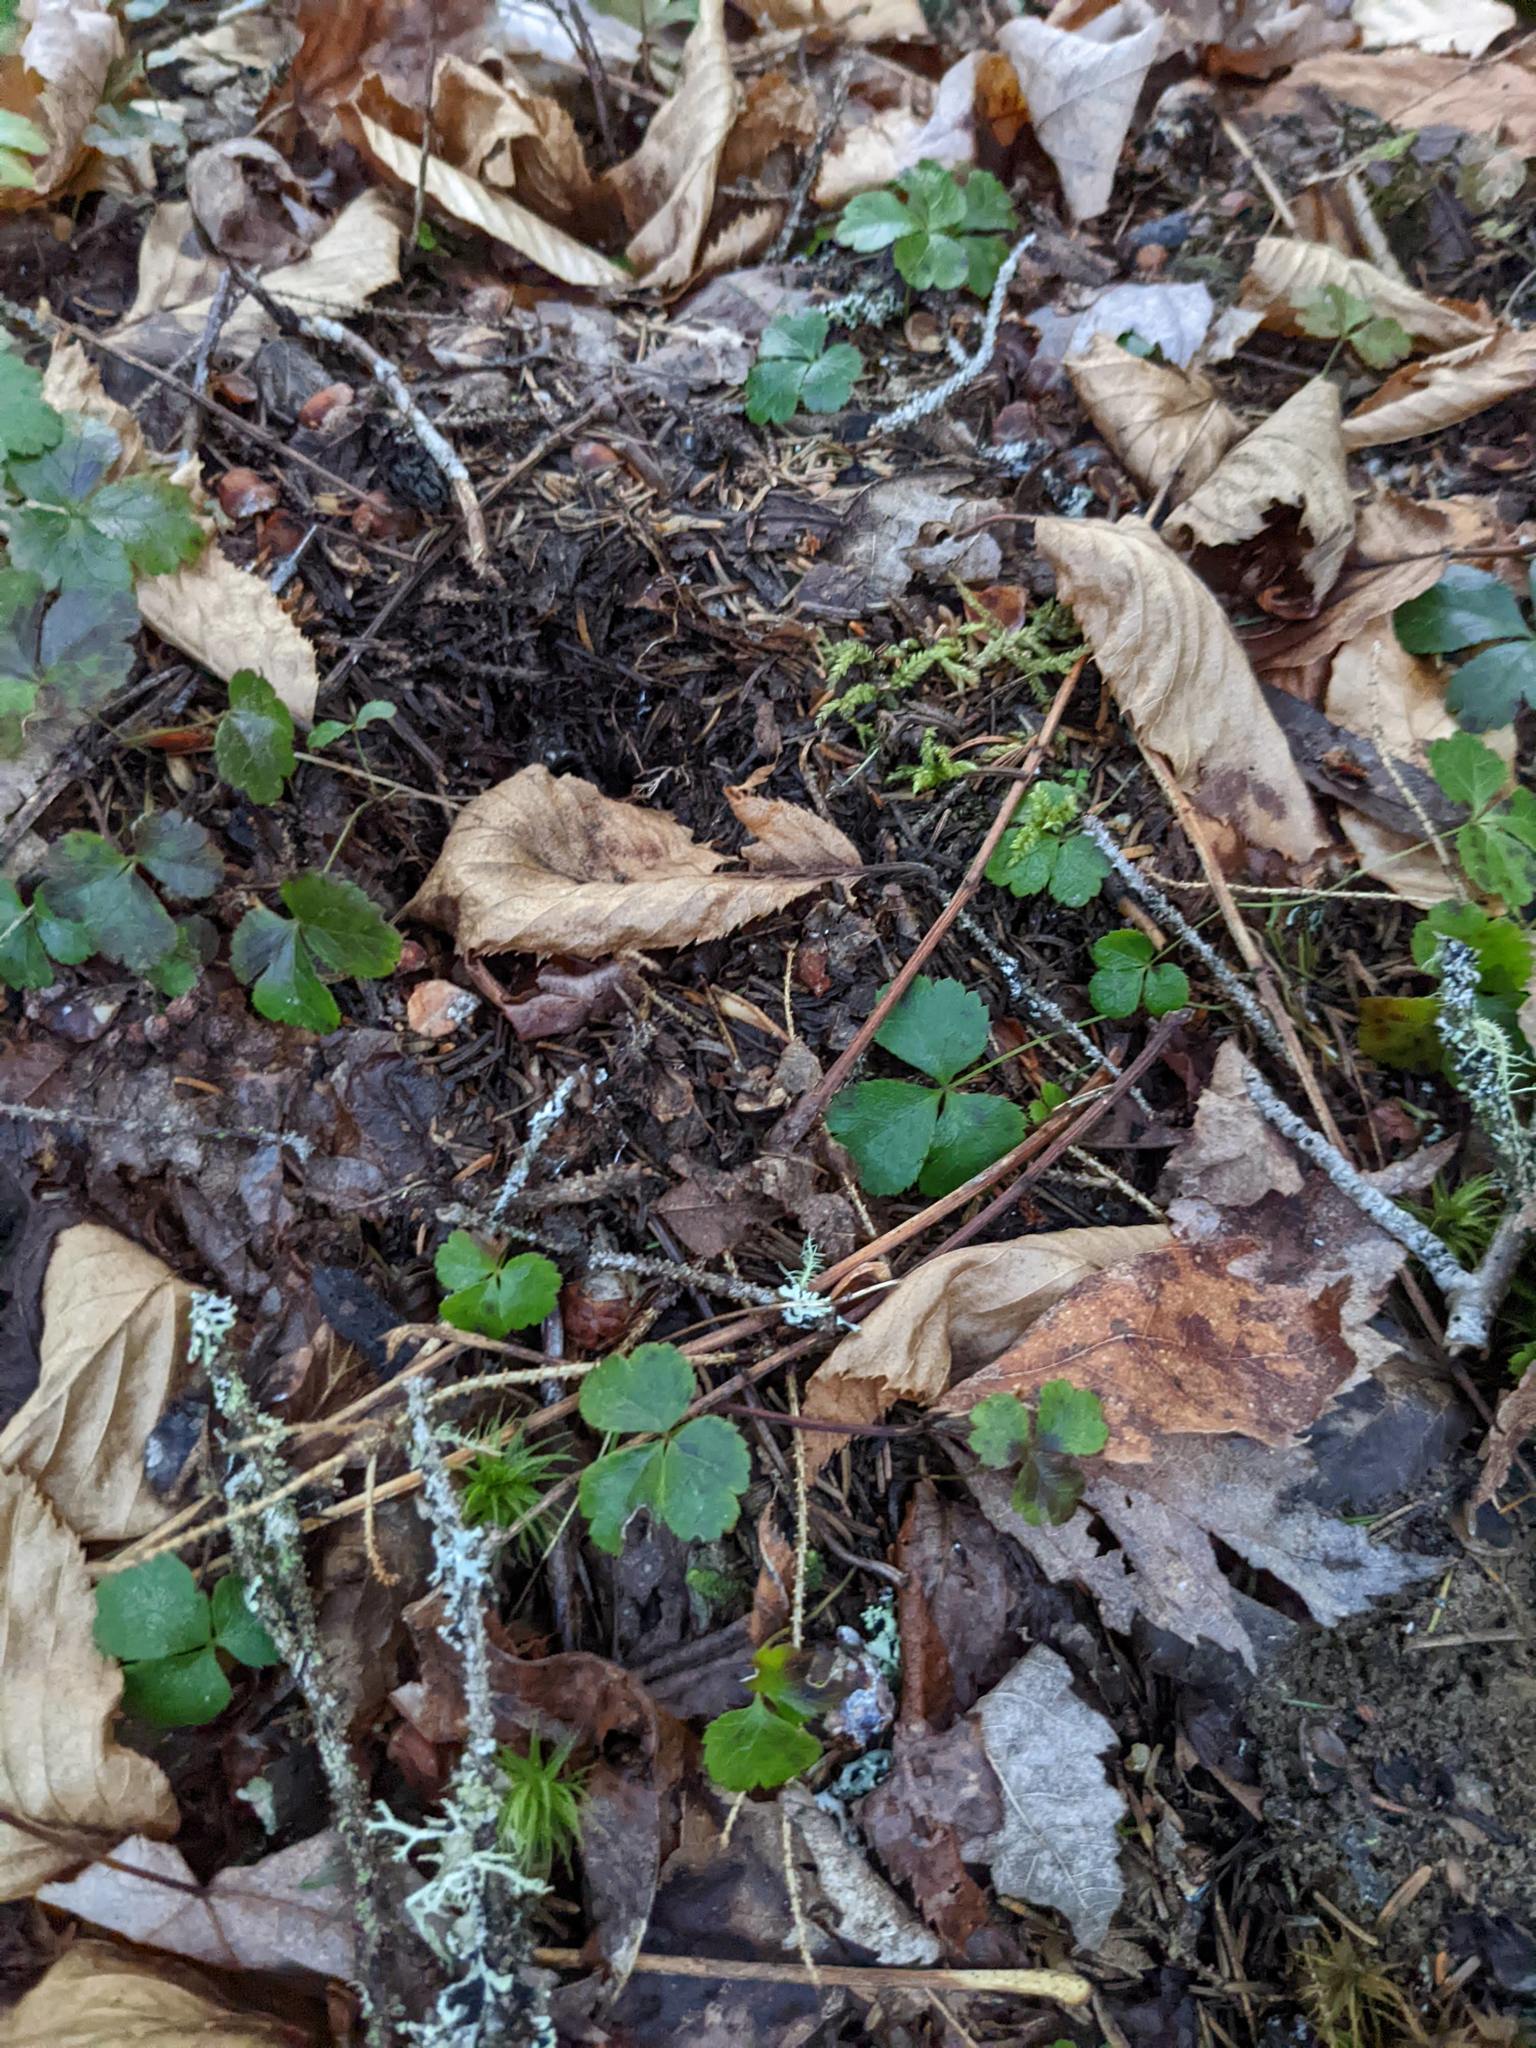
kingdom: Plantae
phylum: Tracheophyta
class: Magnoliopsida
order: Ranunculales
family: Ranunculaceae
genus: Coptis
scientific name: Coptis trifolia
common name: Canker-root
